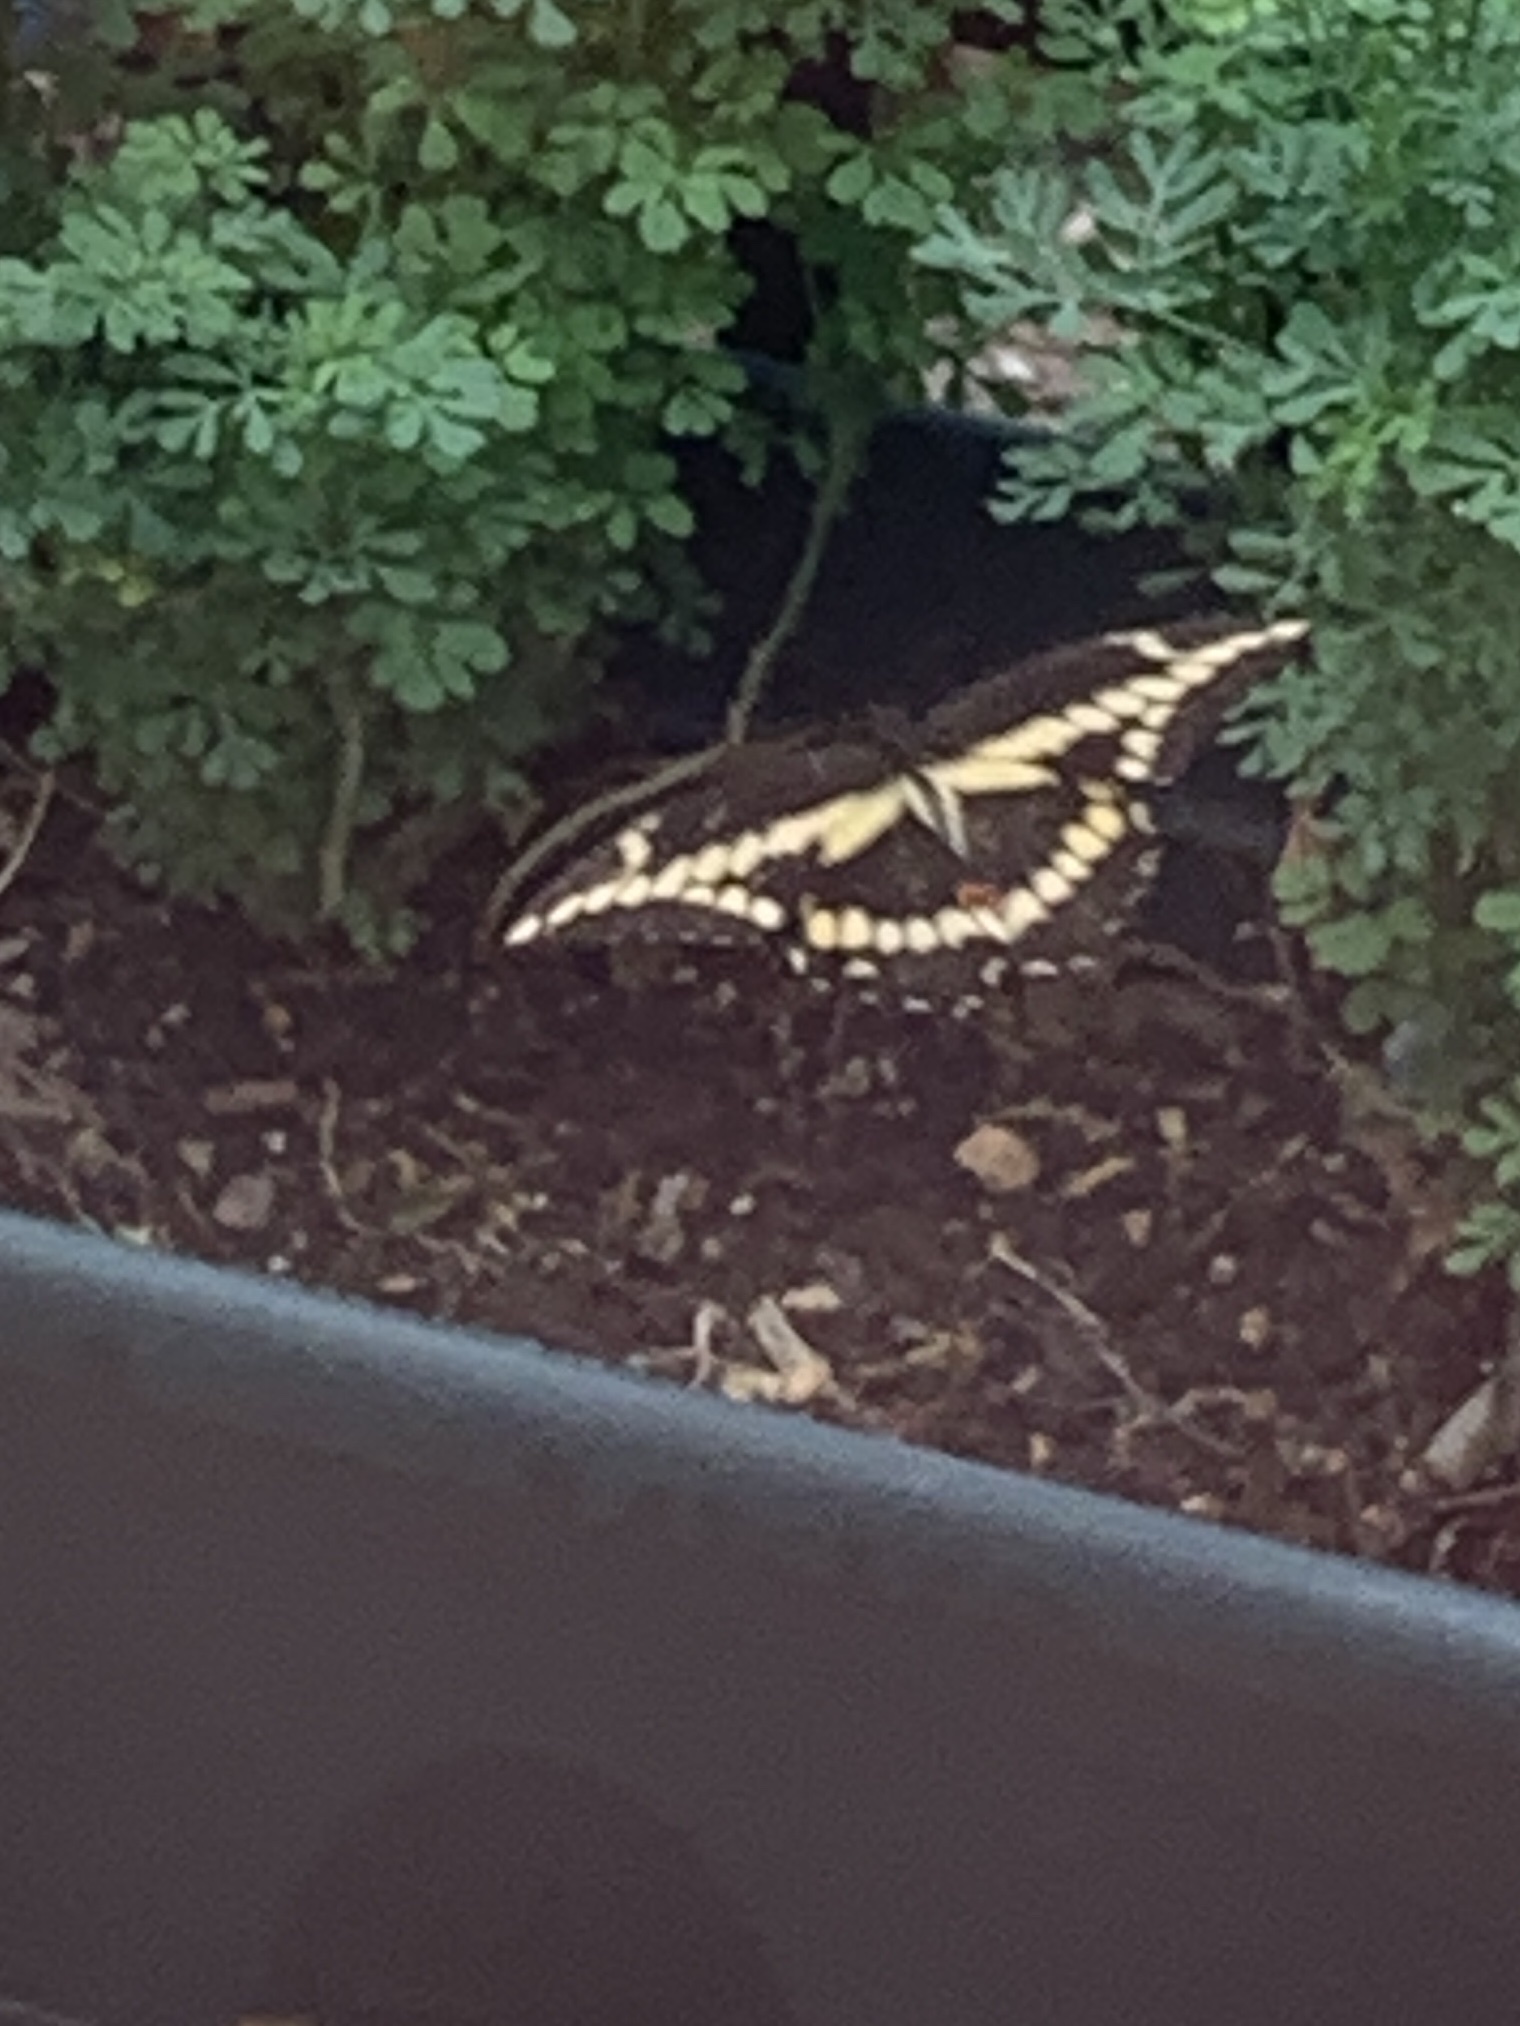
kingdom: Animalia
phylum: Arthropoda
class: Insecta
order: Lepidoptera
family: Papilionidae
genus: Papilio
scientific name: Papilio cresphontes
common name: Giant swallowtail
